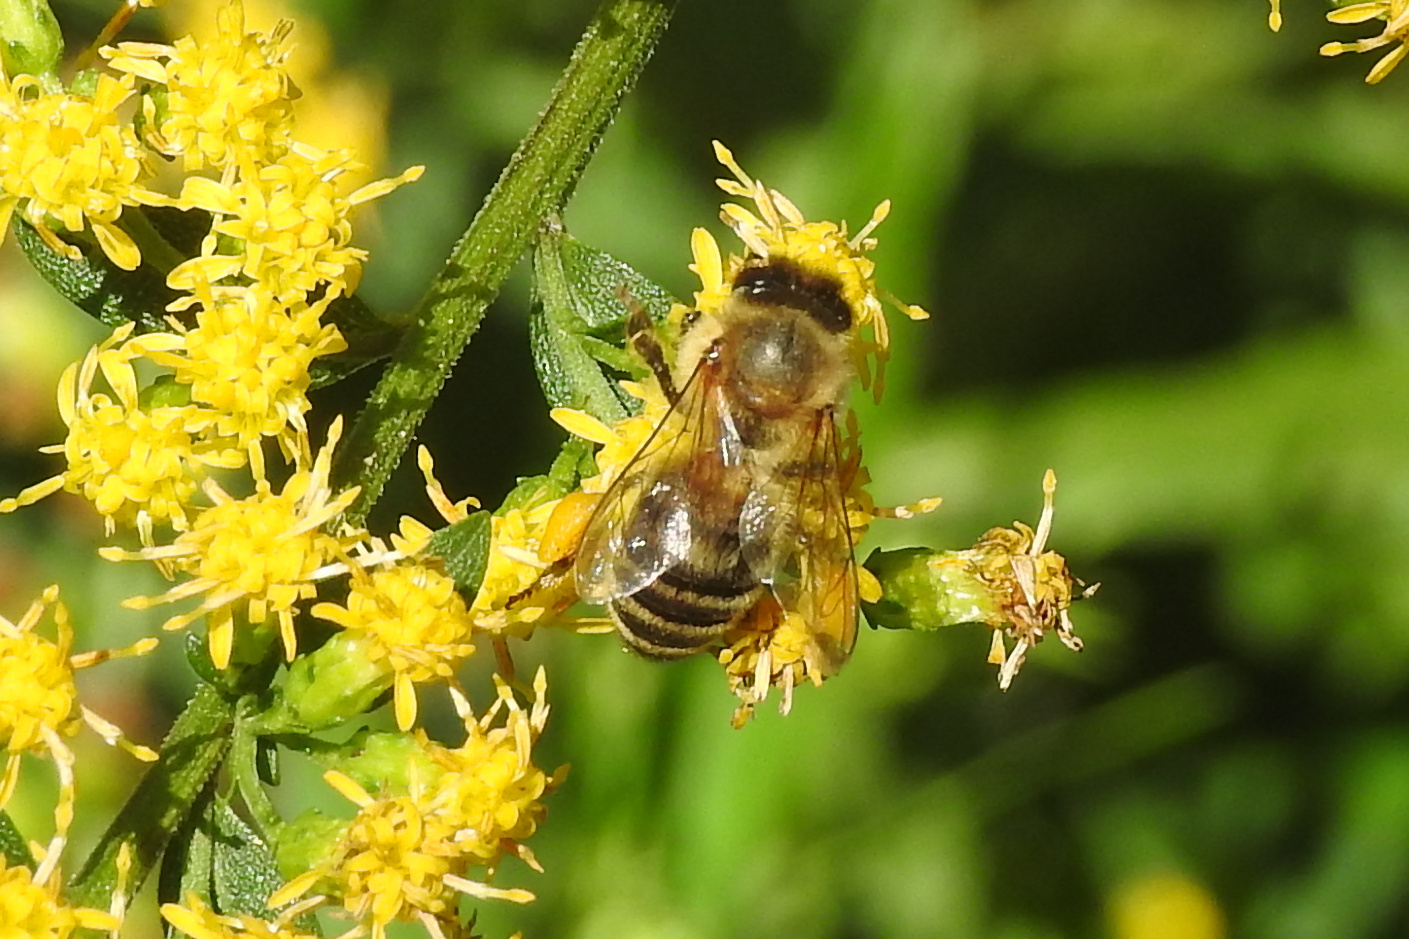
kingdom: Animalia
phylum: Arthropoda
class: Insecta
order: Hymenoptera
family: Apidae
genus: Apis
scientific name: Apis mellifera
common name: Honey bee
